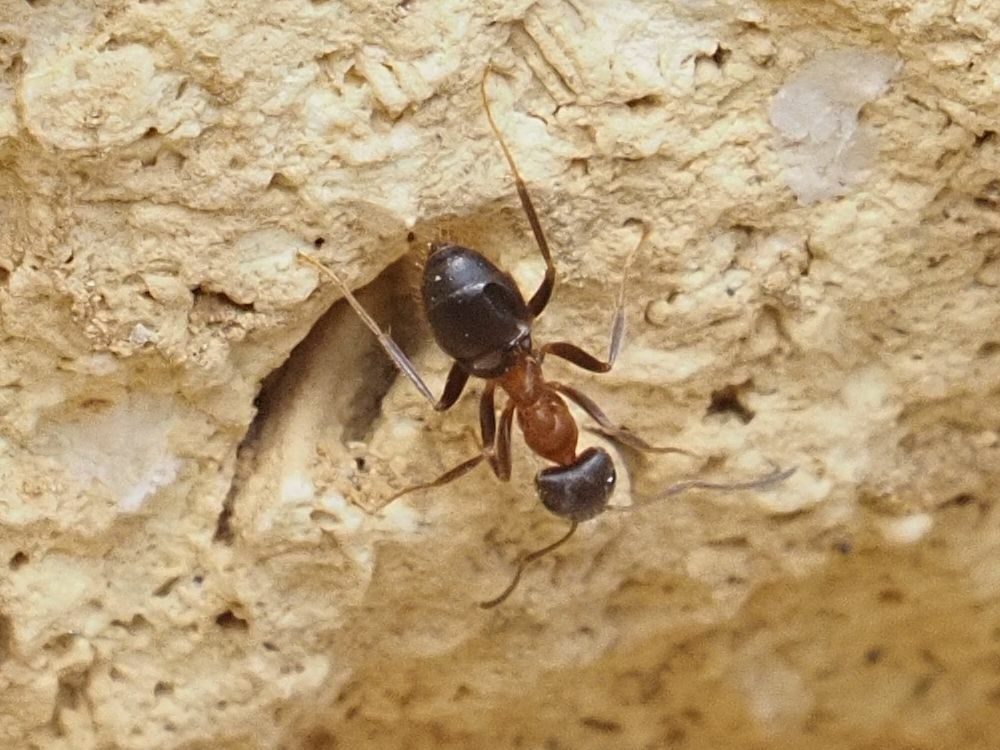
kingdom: Animalia
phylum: Arthropoda
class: Insecta
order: Hymenoptera
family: Formicidae
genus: Lasius
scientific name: Lasius emarginatus
